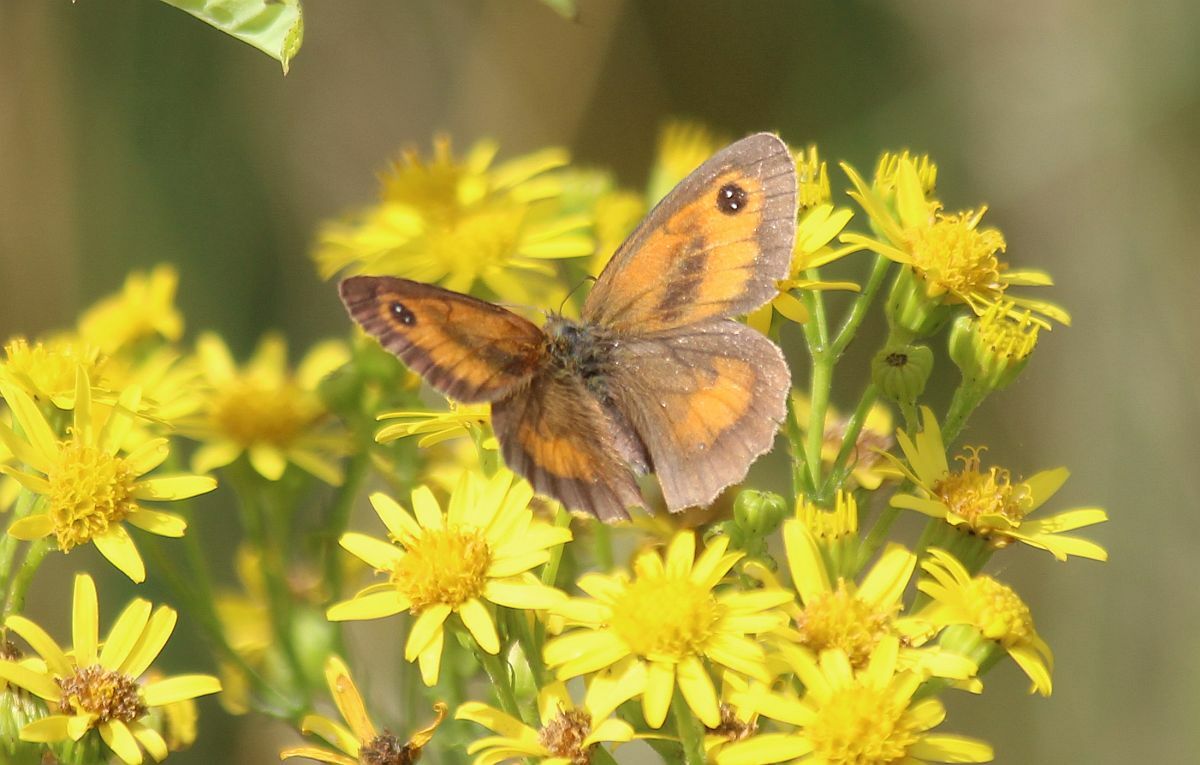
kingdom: Animalia
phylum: Arthropoda
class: Insecta
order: Lepidoptera
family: Nymphalidae
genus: Pyronia
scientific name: Pyronia tithonus
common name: Gatekeeper
